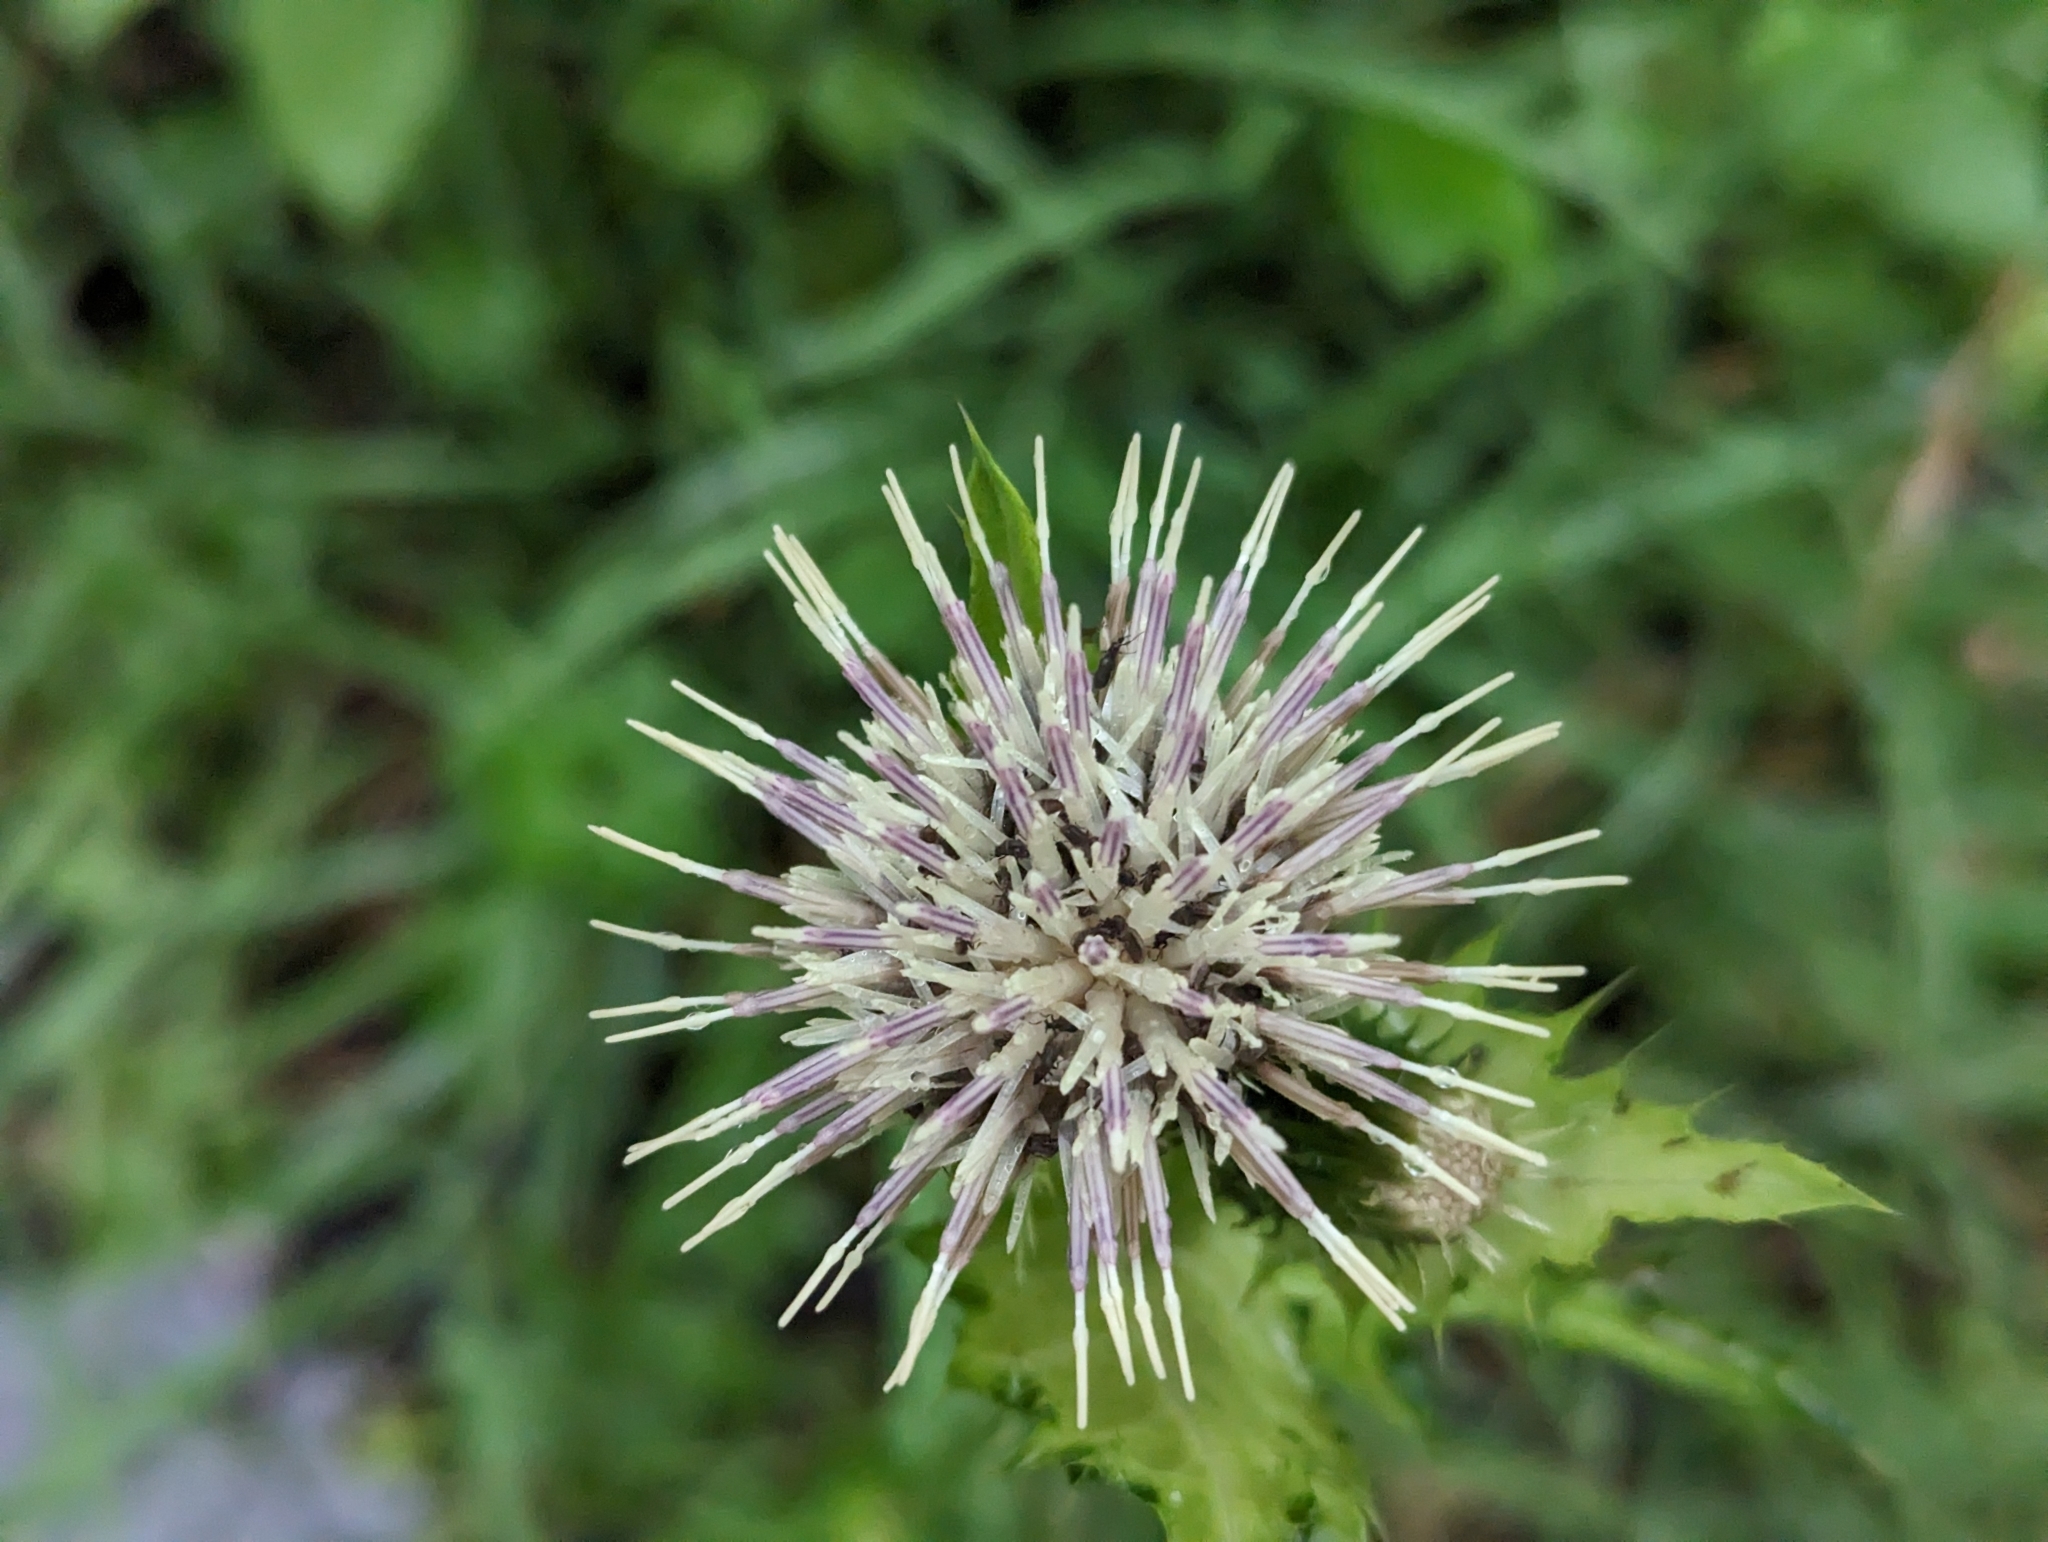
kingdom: Plantae
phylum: Tracheophyta
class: Magnoliopsida
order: Asterales
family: Asteraceae
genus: Cirsium
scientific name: Cirsium oleraceum
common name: Cabbage thistle
